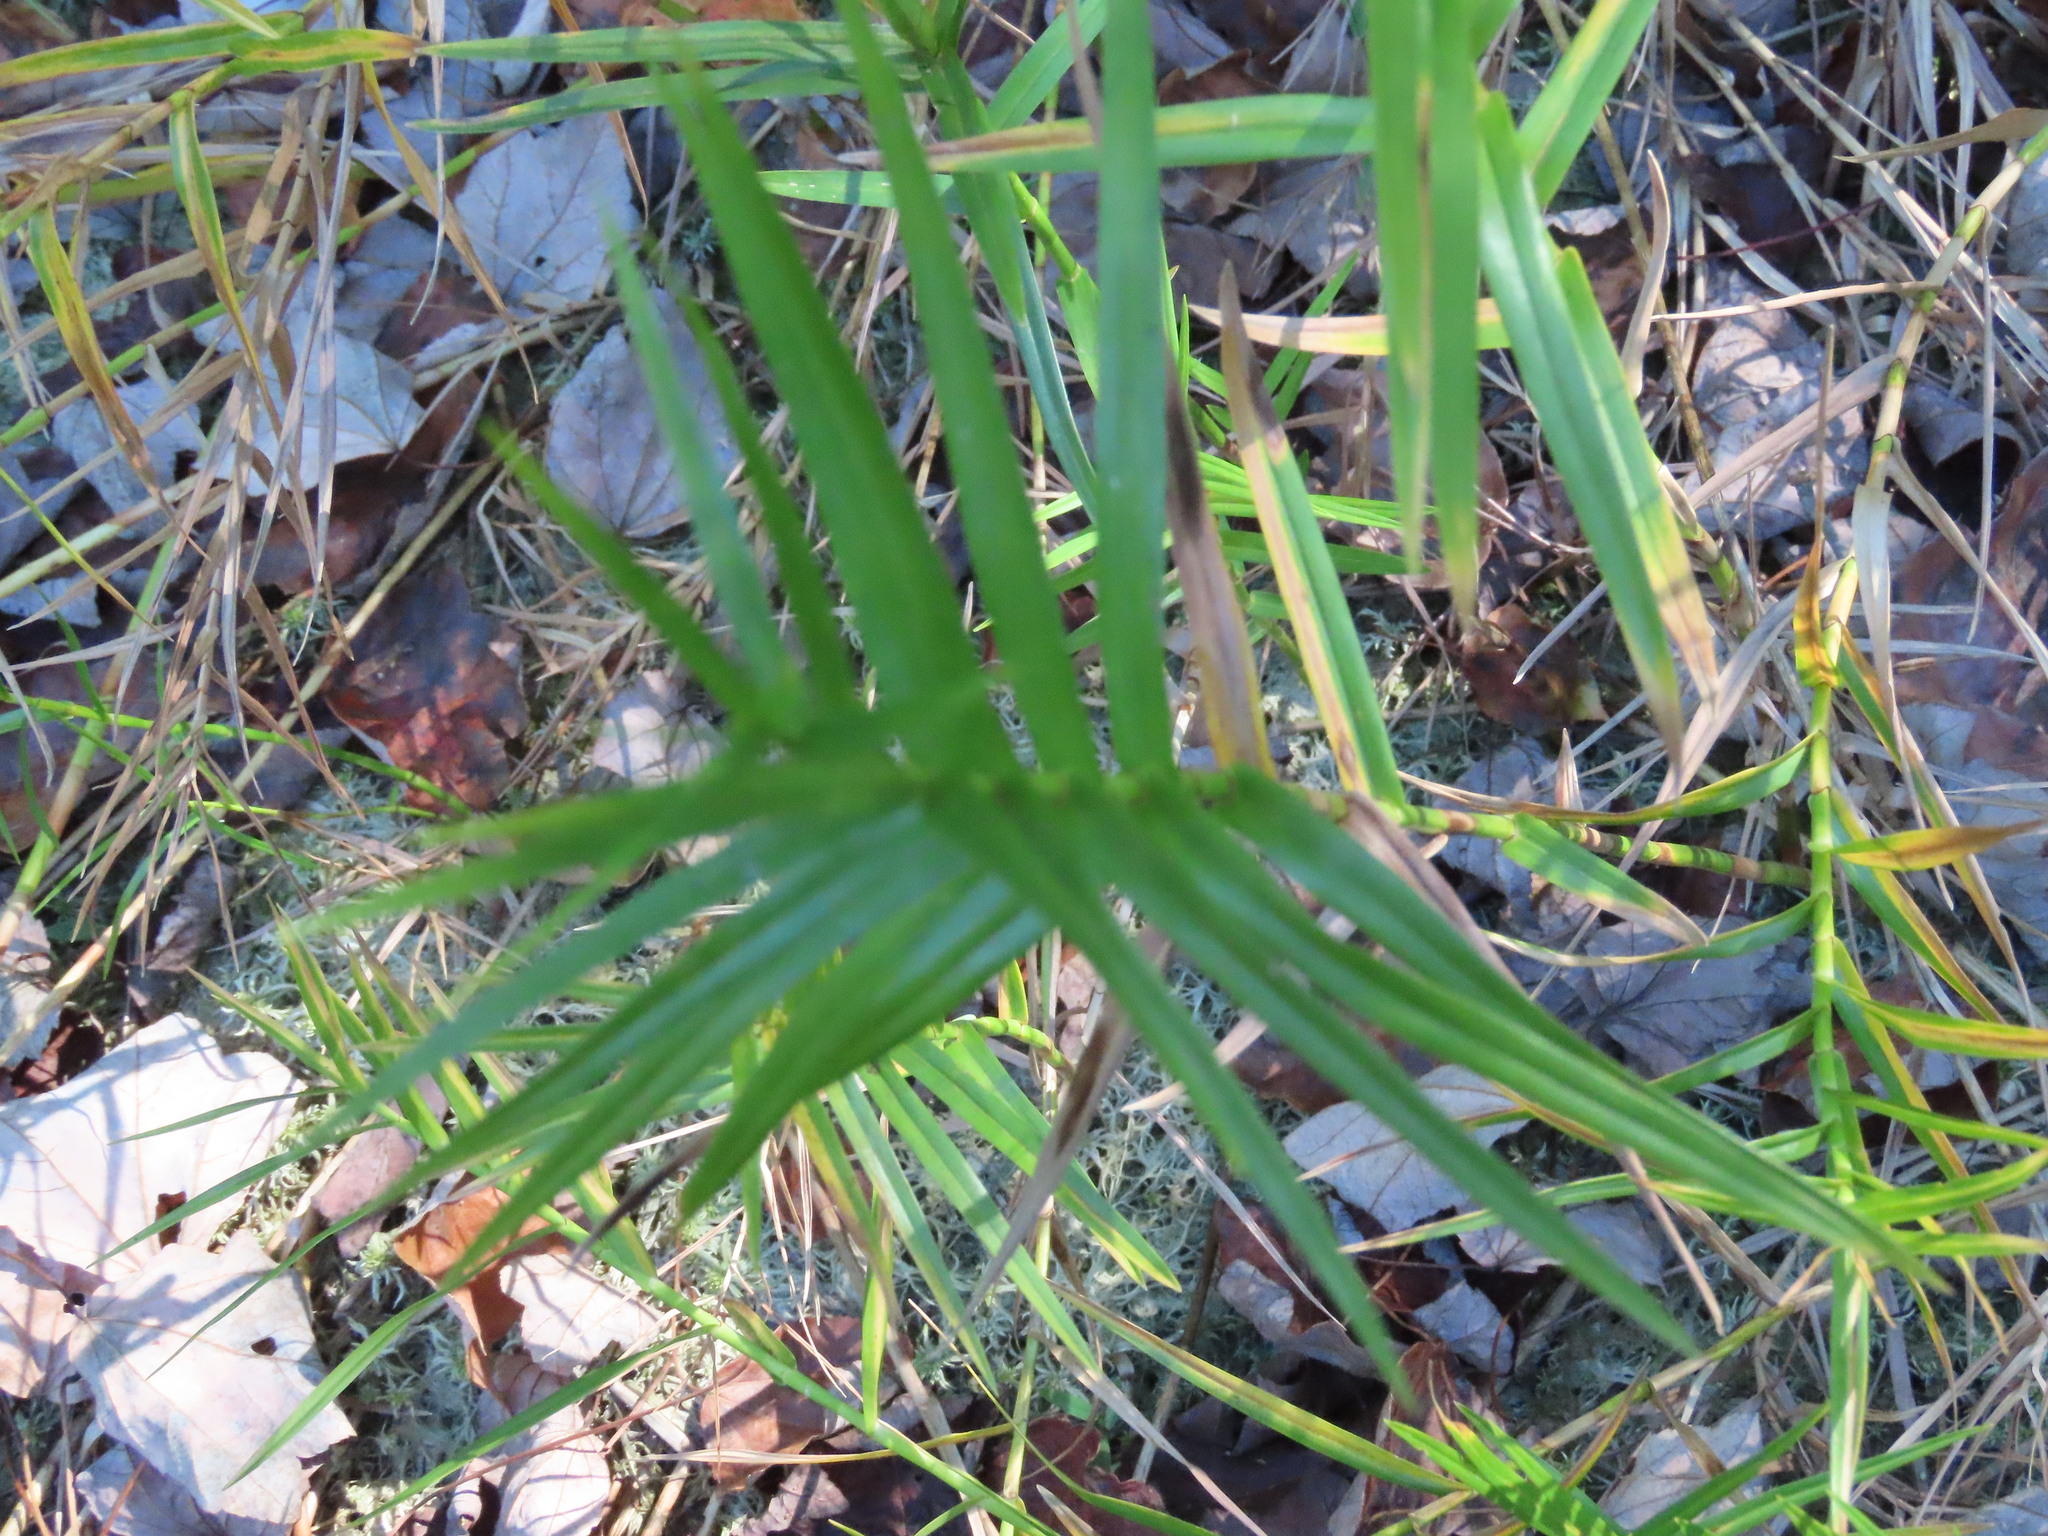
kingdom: Plantae
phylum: Tracheophyta
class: Liliopsida
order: Poales
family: Cyperaceae
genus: Dulichium
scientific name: Dulichium arundinaceum
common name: Three-way sedge
